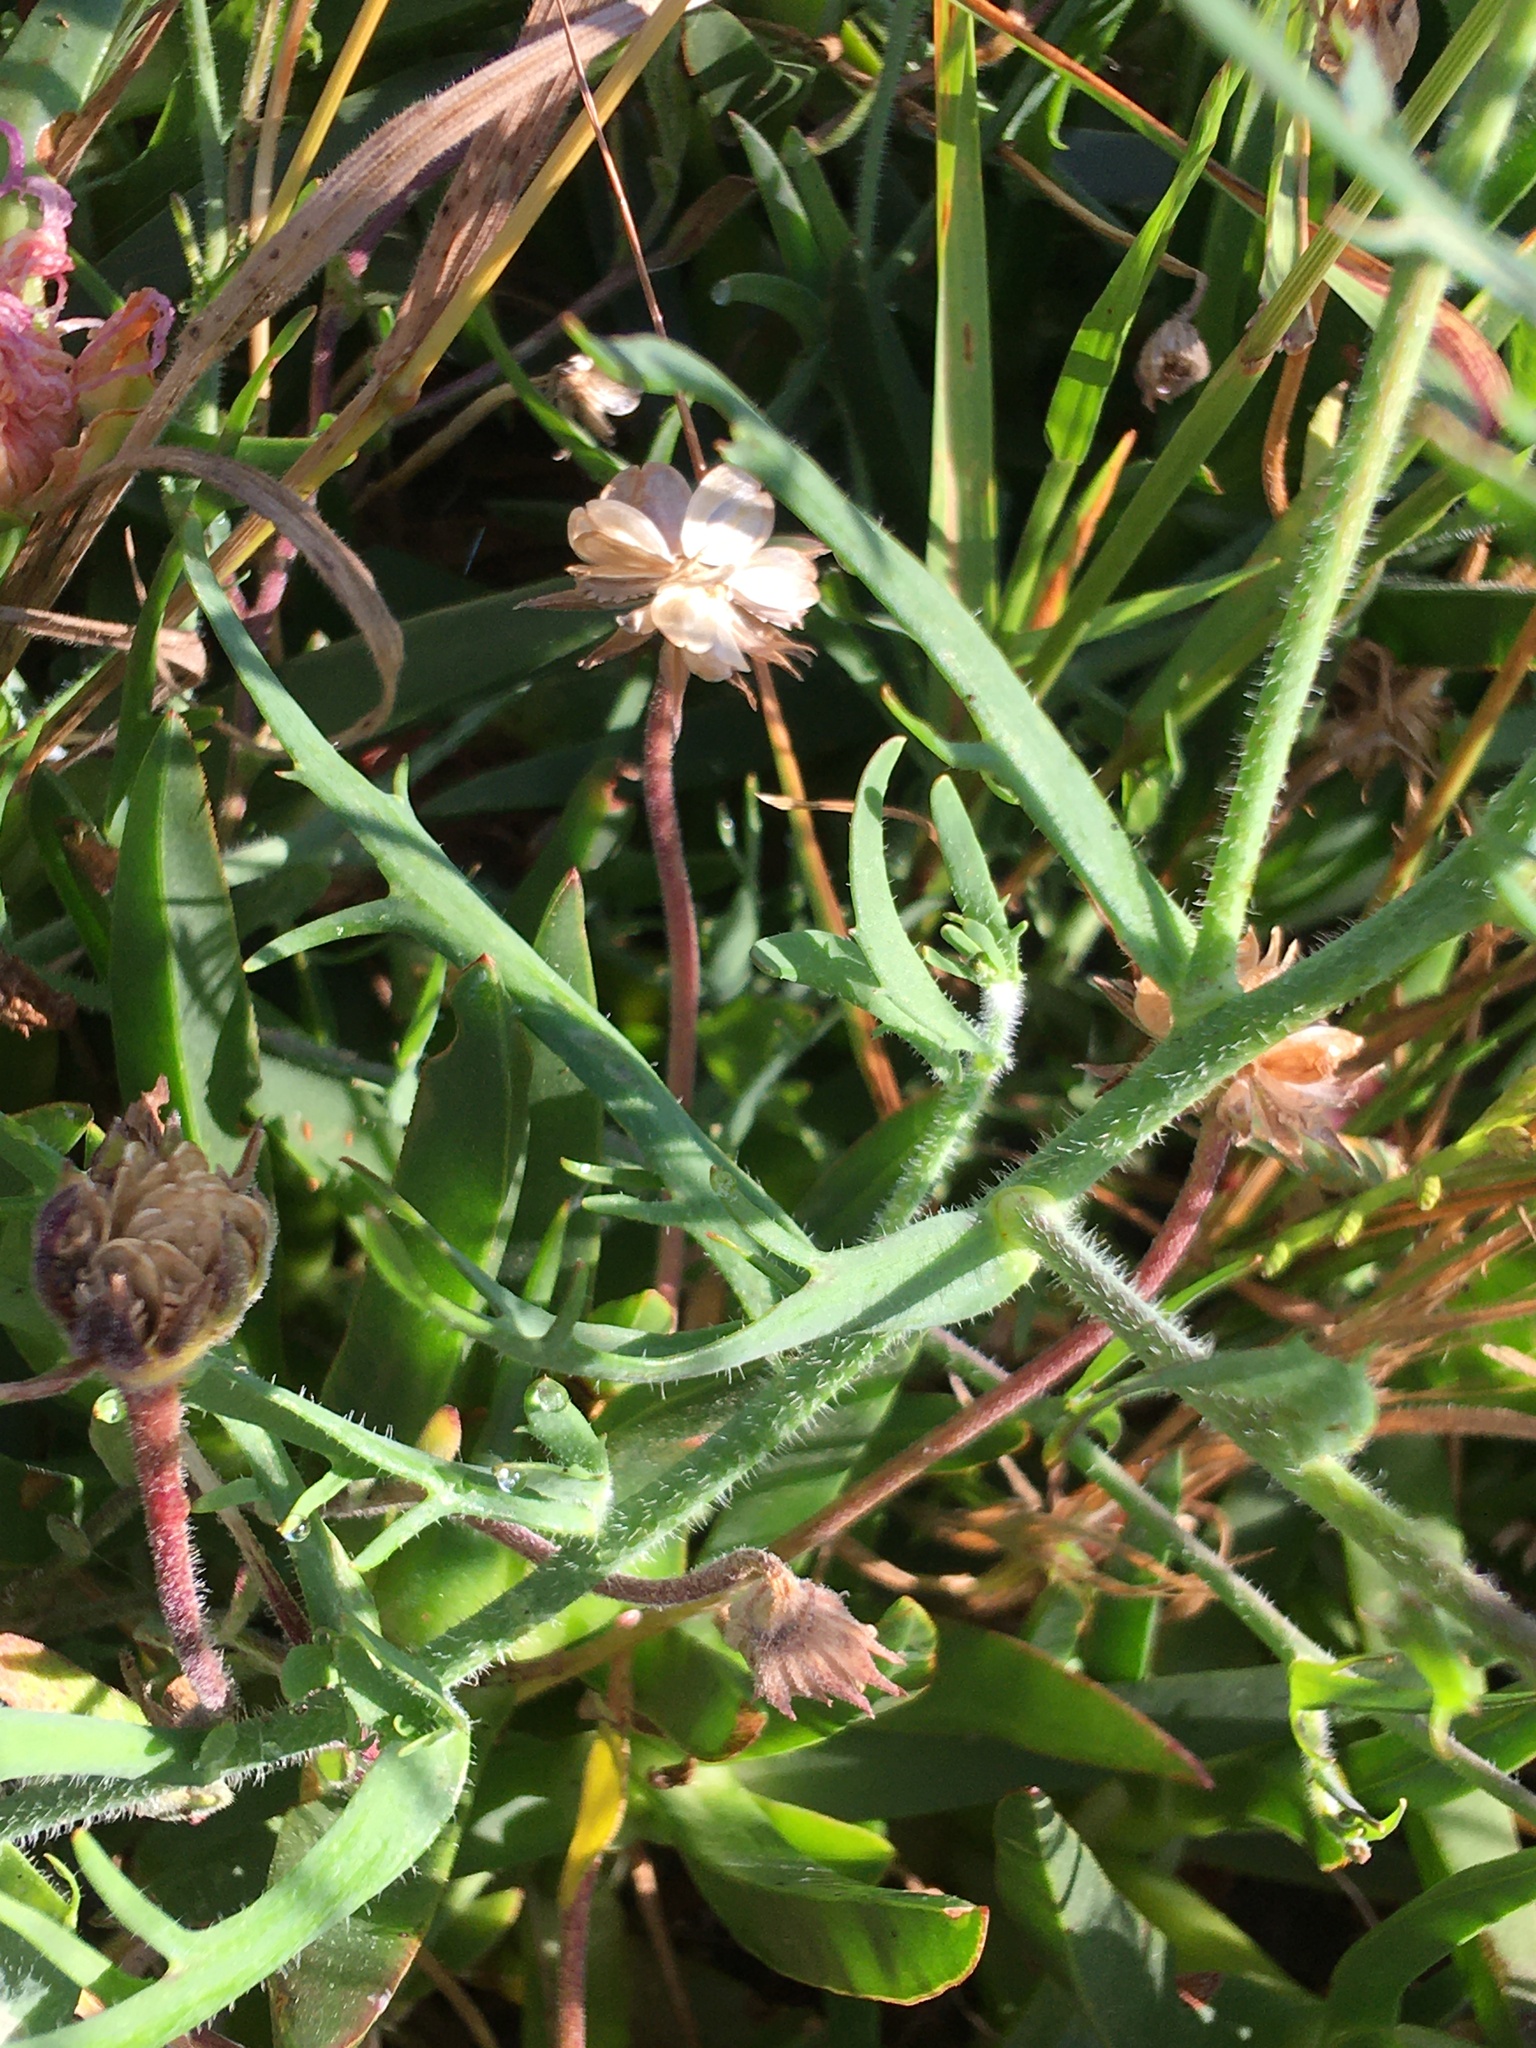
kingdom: Plantae
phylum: Tracheophyta
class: Magnoliopsida
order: Brassicales
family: Brassicaceae
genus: Heliophila
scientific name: Heliophila africana
